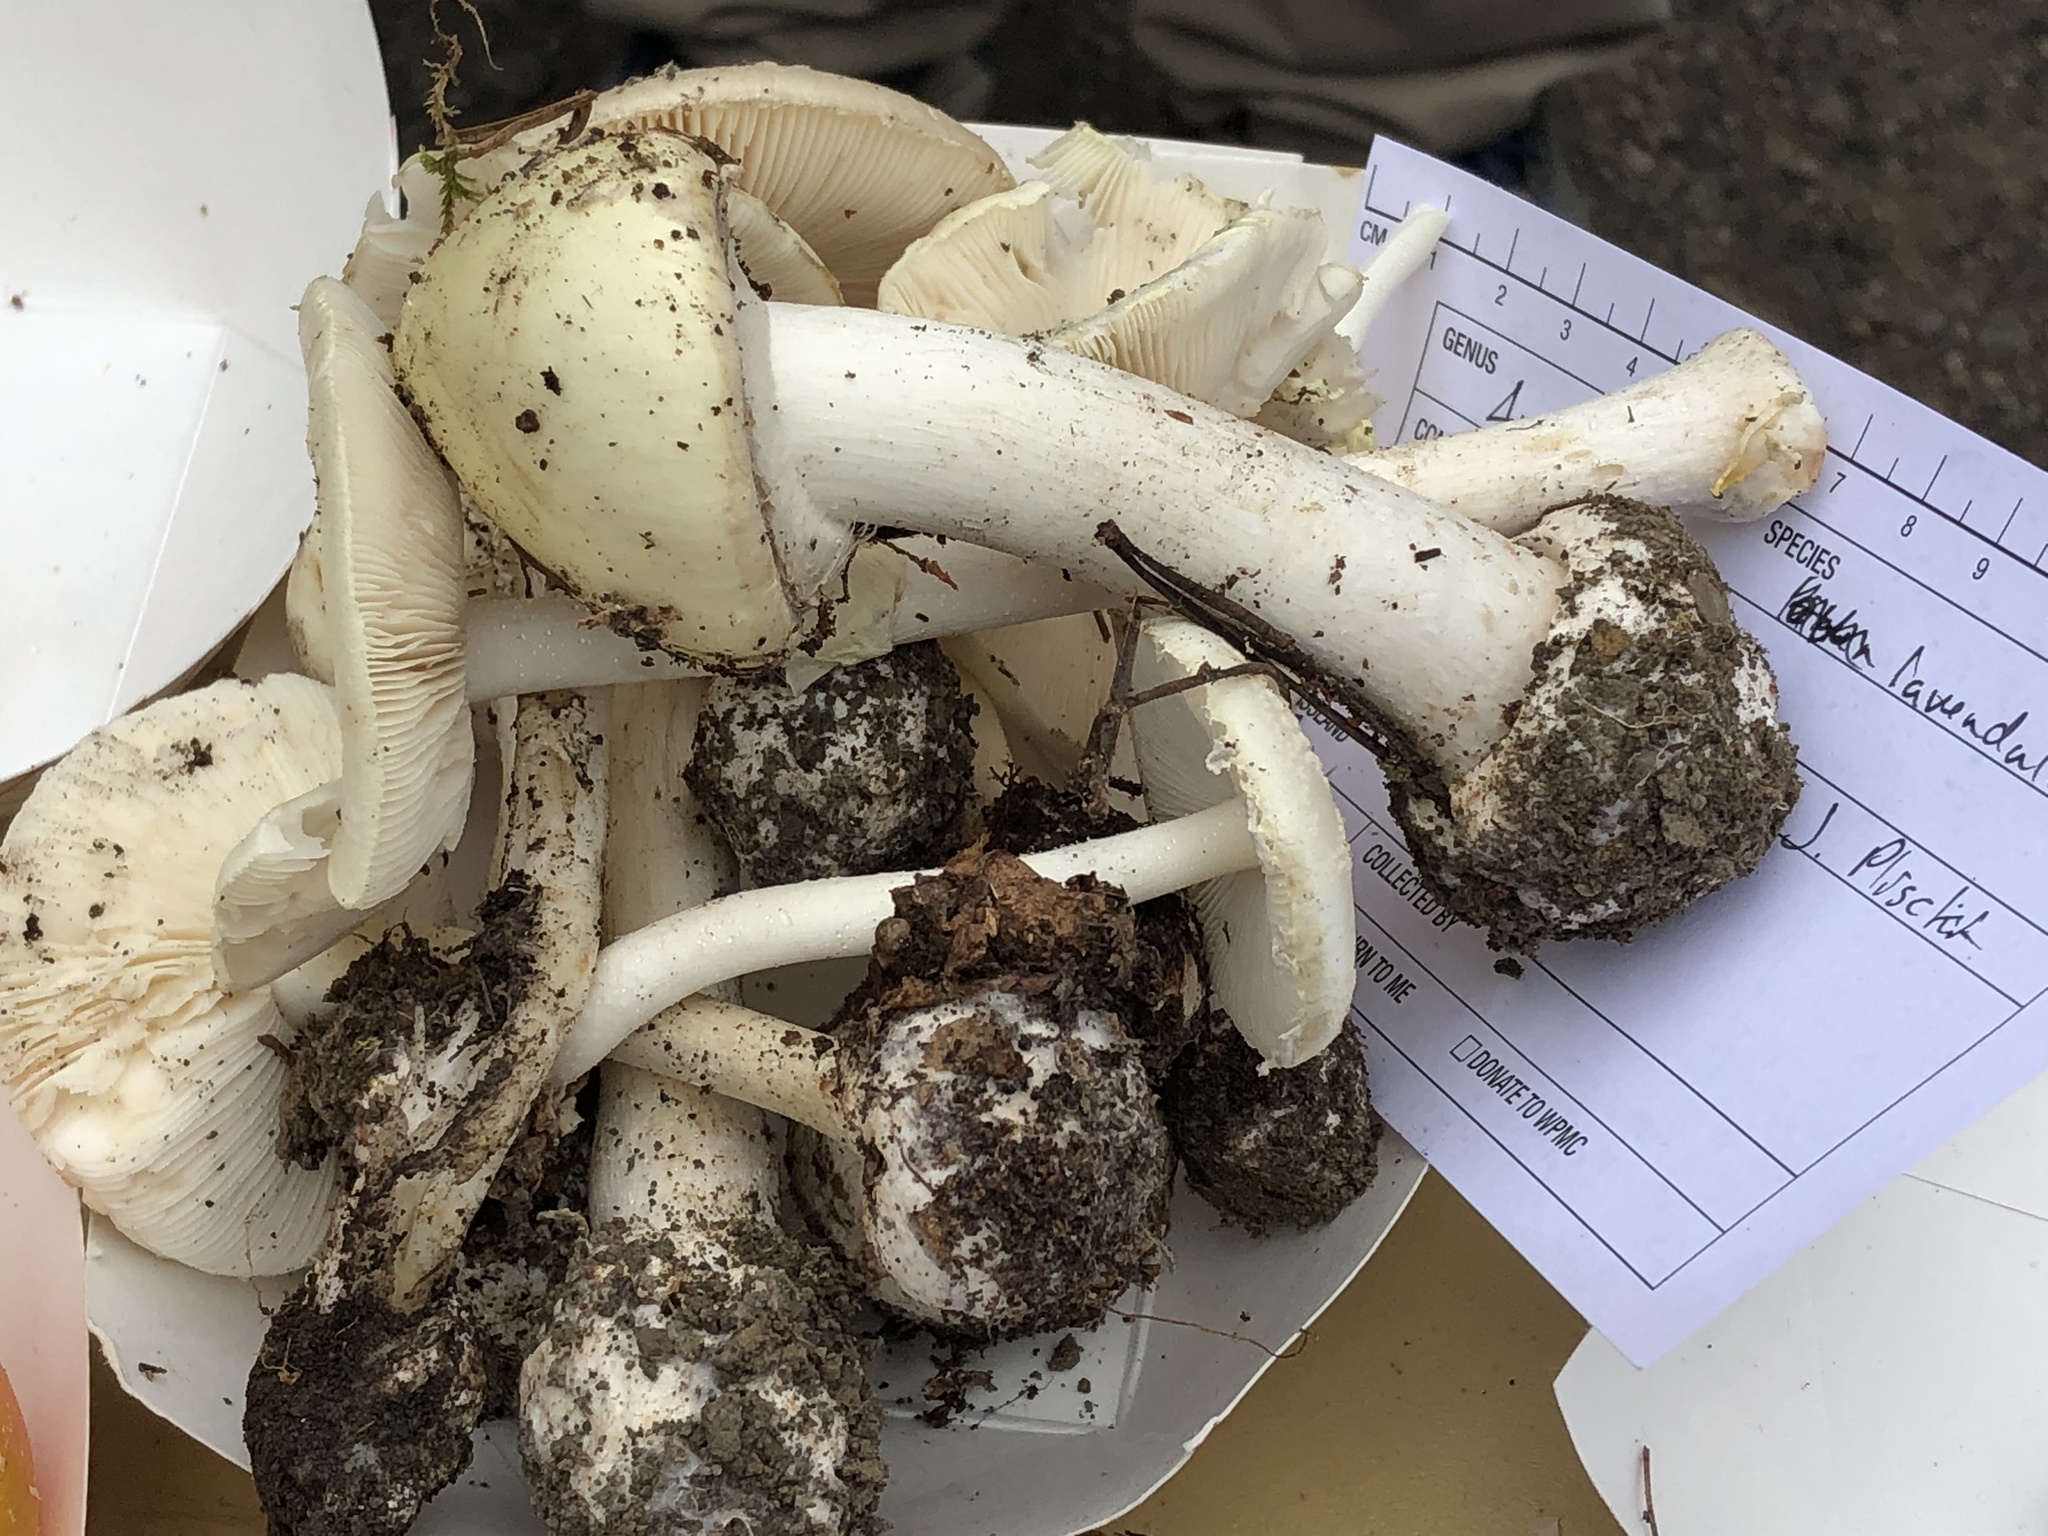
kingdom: Fungi
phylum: Basidiomycota
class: Agaricomycetes
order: Agaricales
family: Amanitaceae
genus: Amanita
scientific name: Amanita lavendula
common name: Coker's lavender staining amanita
